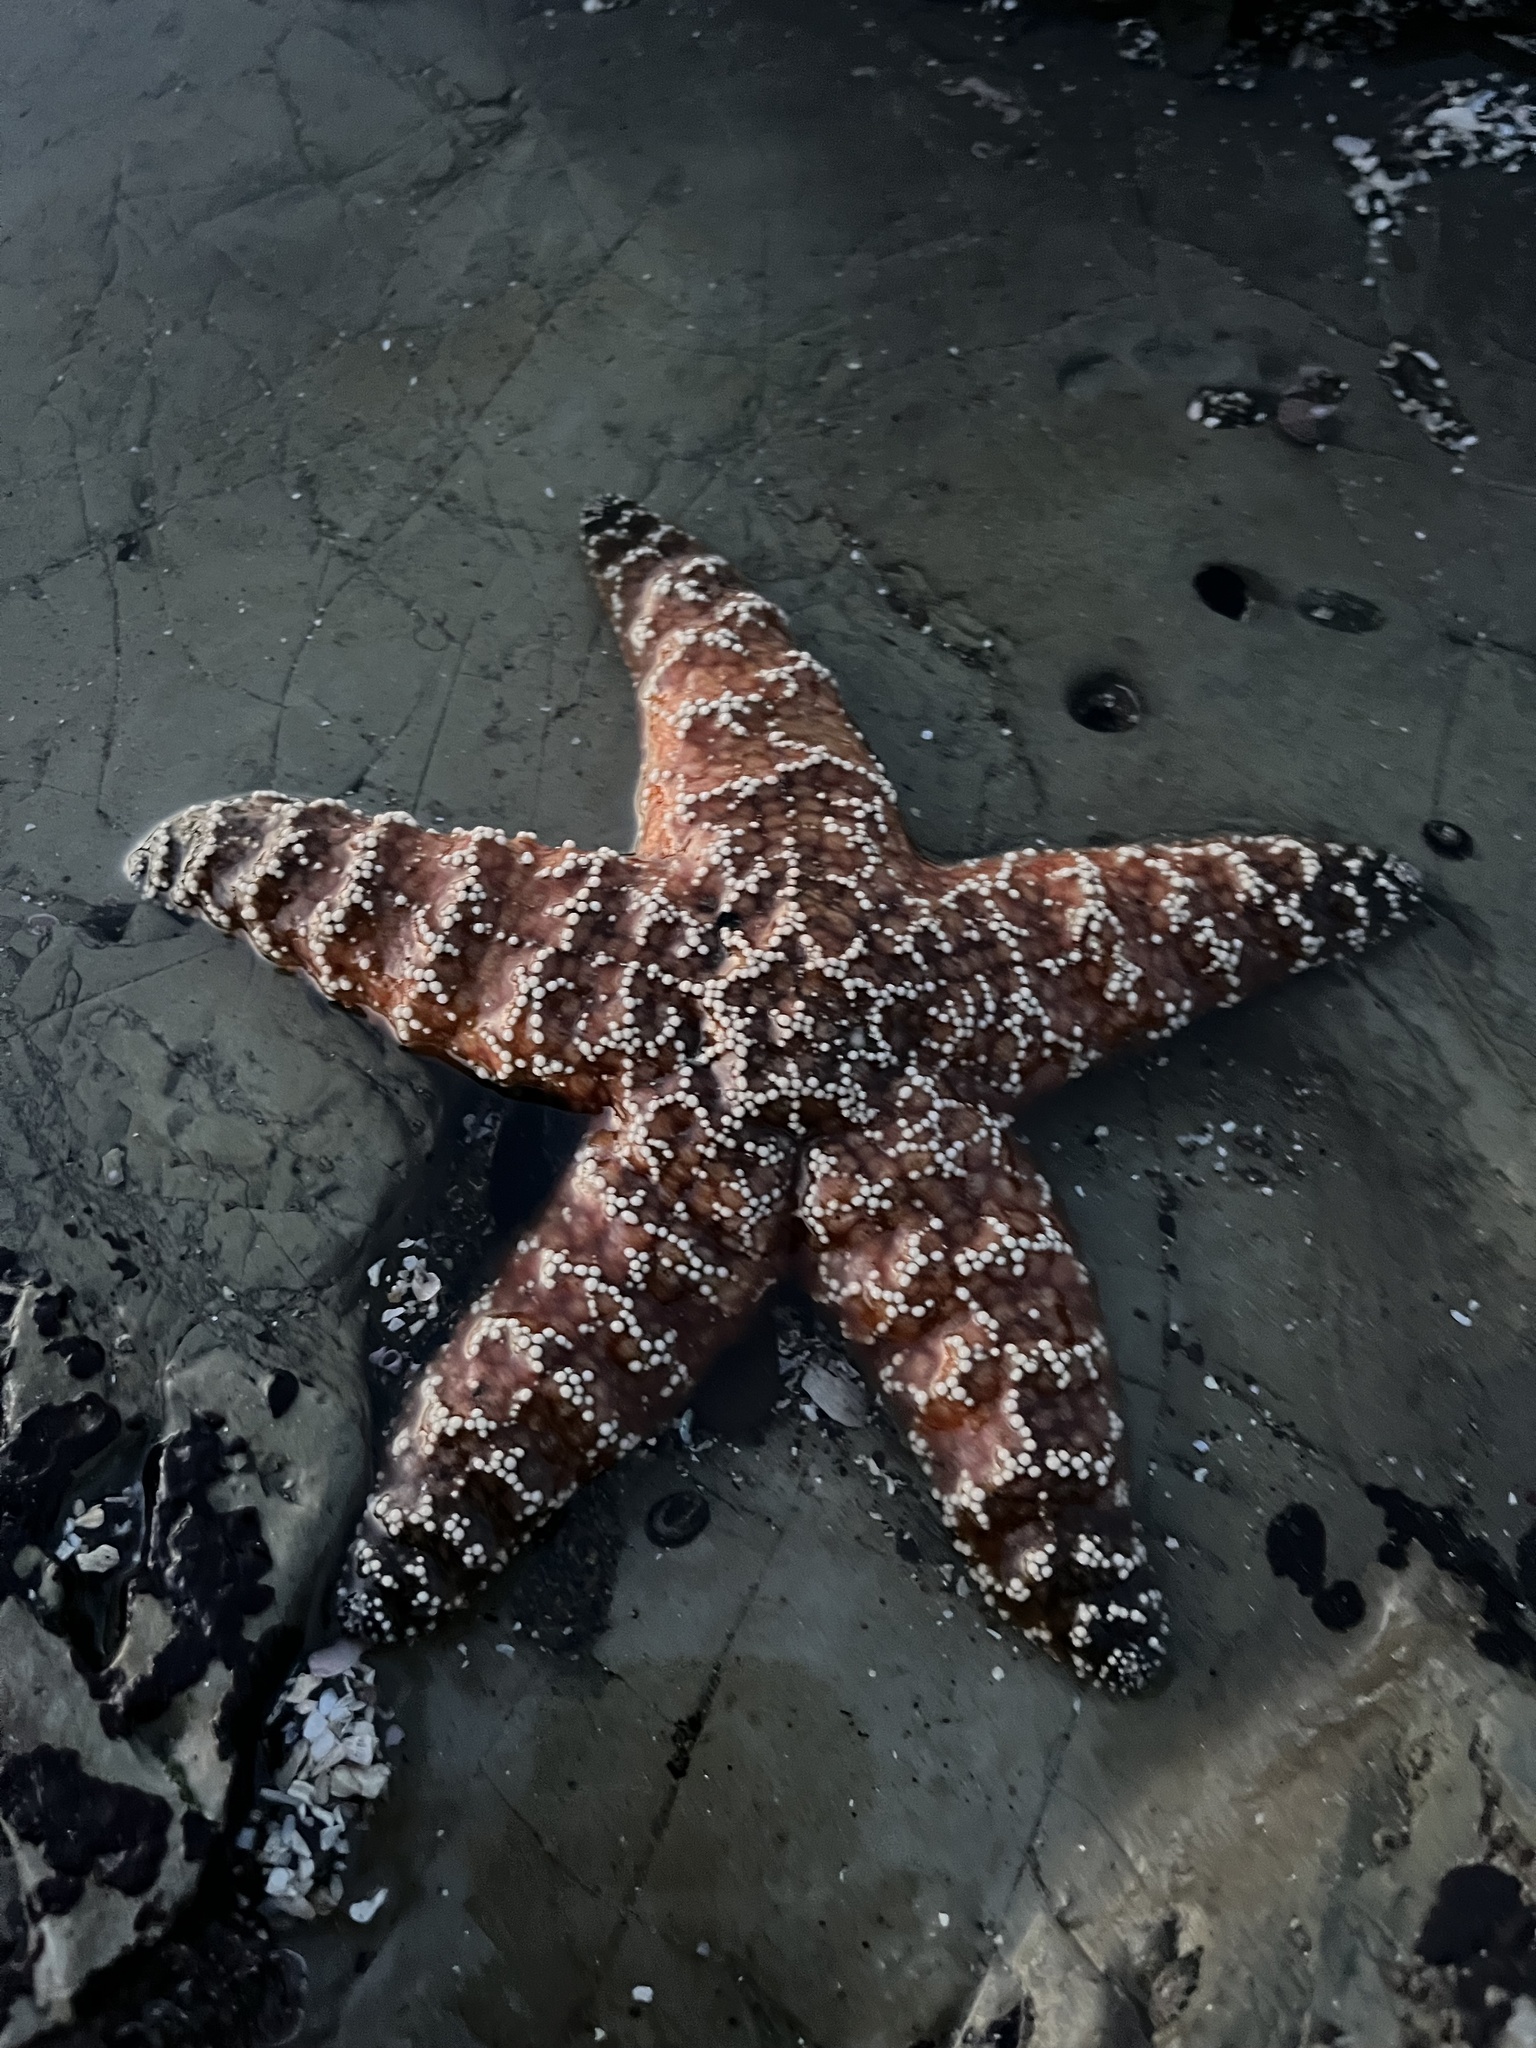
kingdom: Animalia
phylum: Echinodermata
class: Asteroidea
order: Forcipulatida
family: Asteriidae
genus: Pisaster
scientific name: Pisaster ochraceus
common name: Ochre stars
